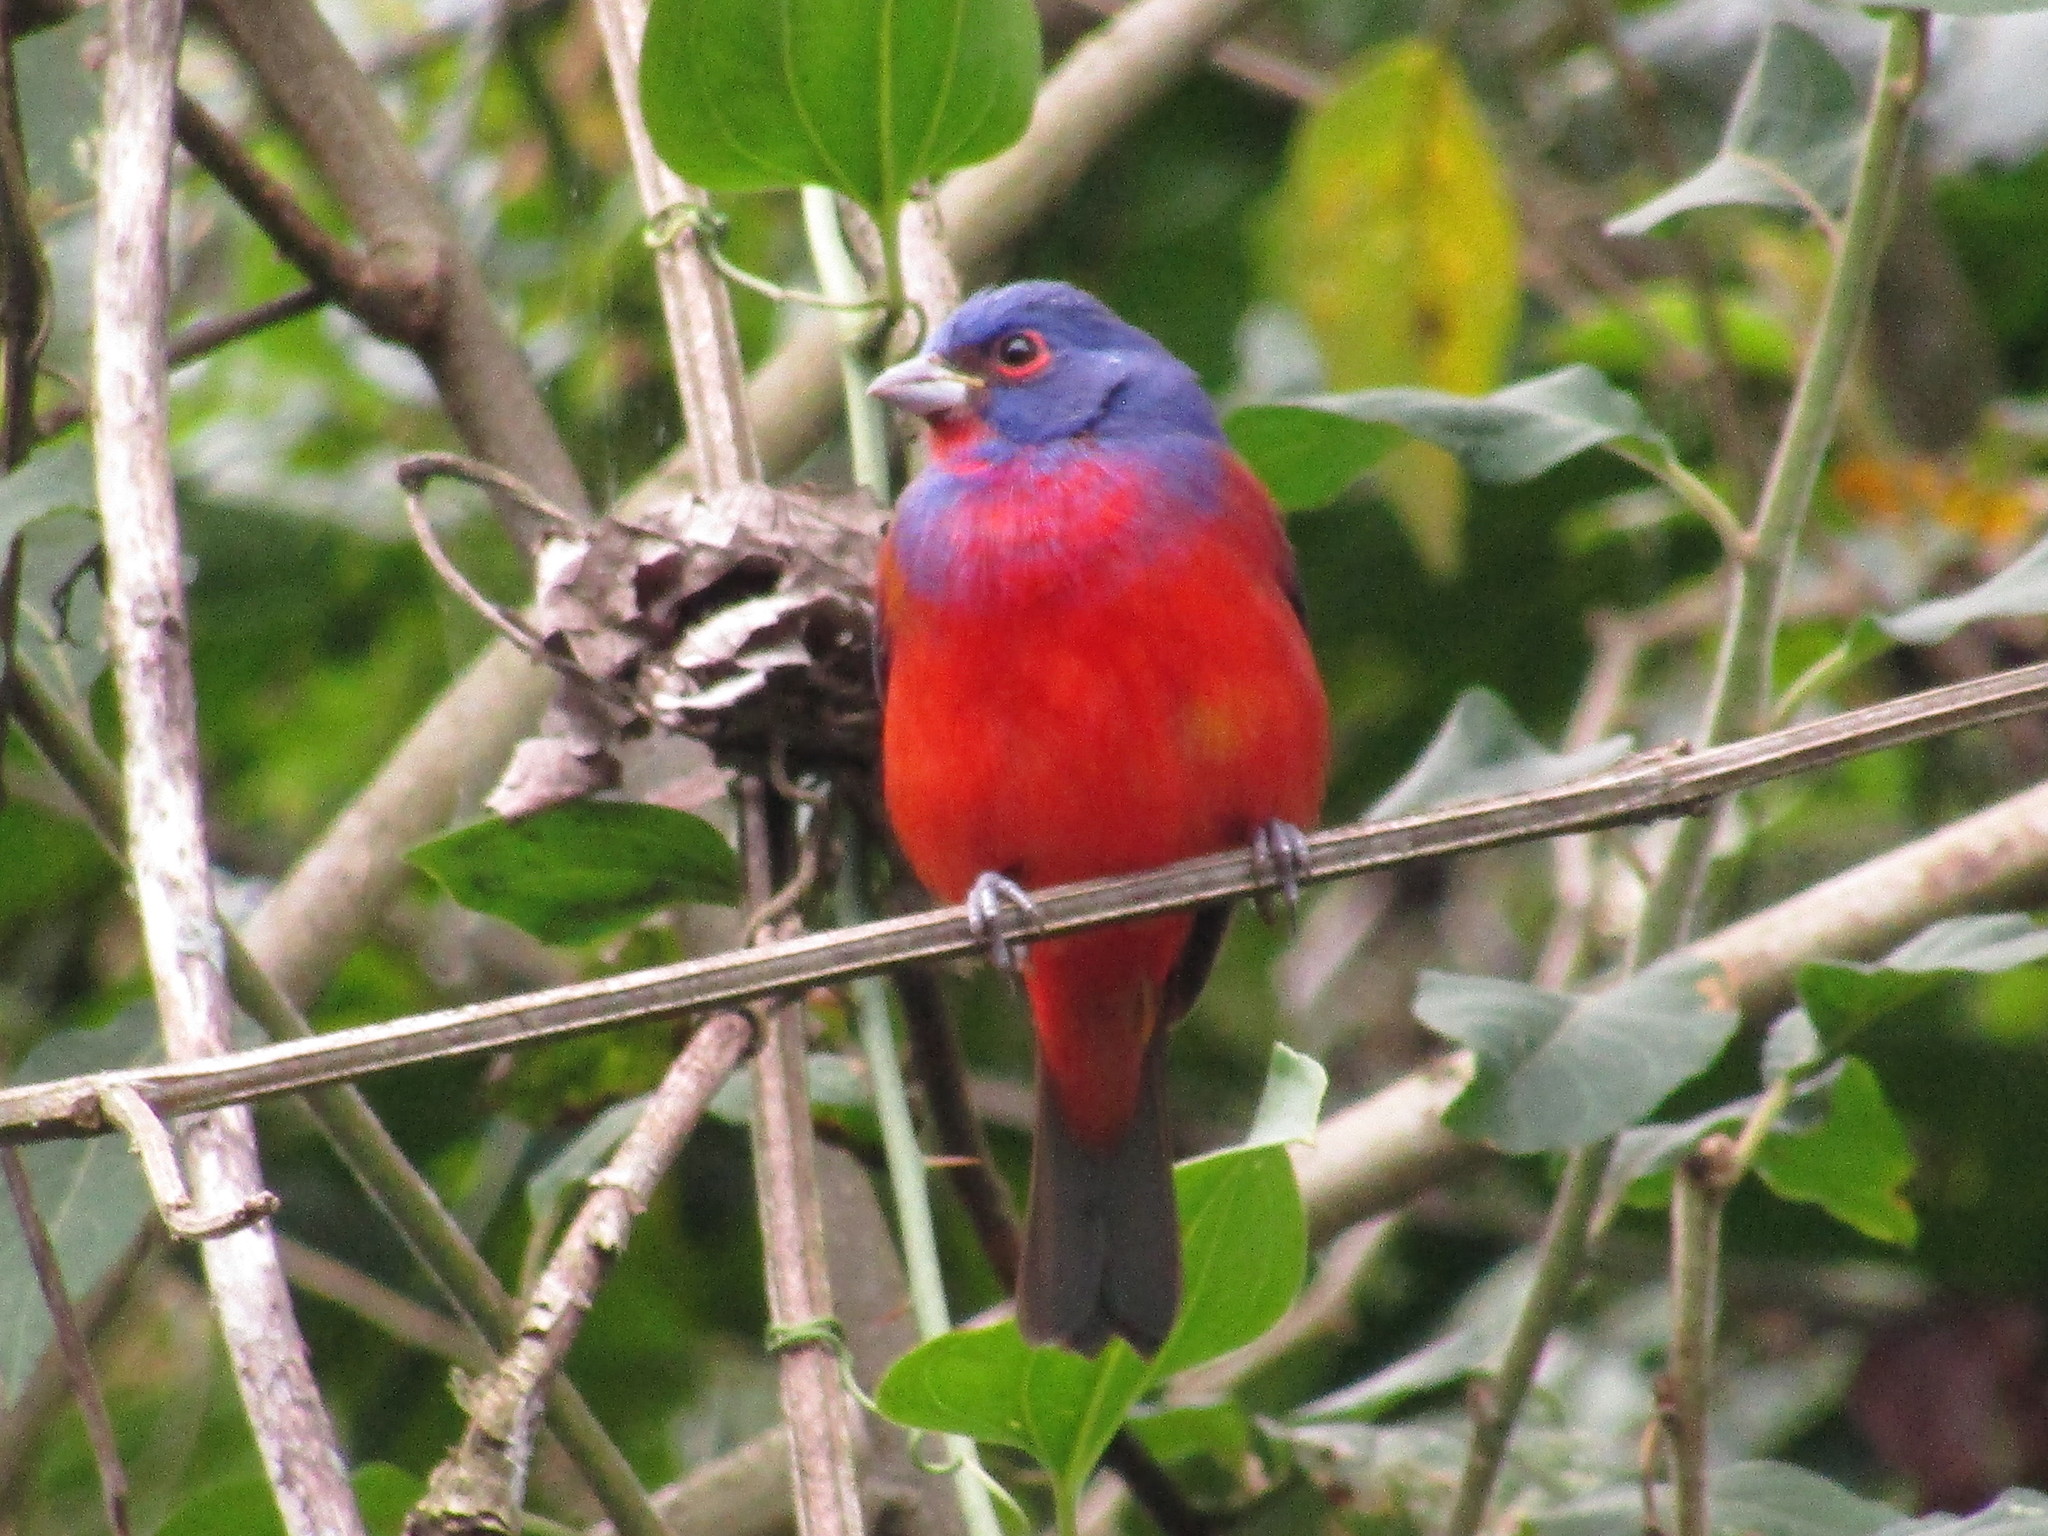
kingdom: Animalia
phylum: Chordata
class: Aves
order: Passeriformes
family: Cardinalidae
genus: Passerina
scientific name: Passerina ciris
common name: Painted bunting
